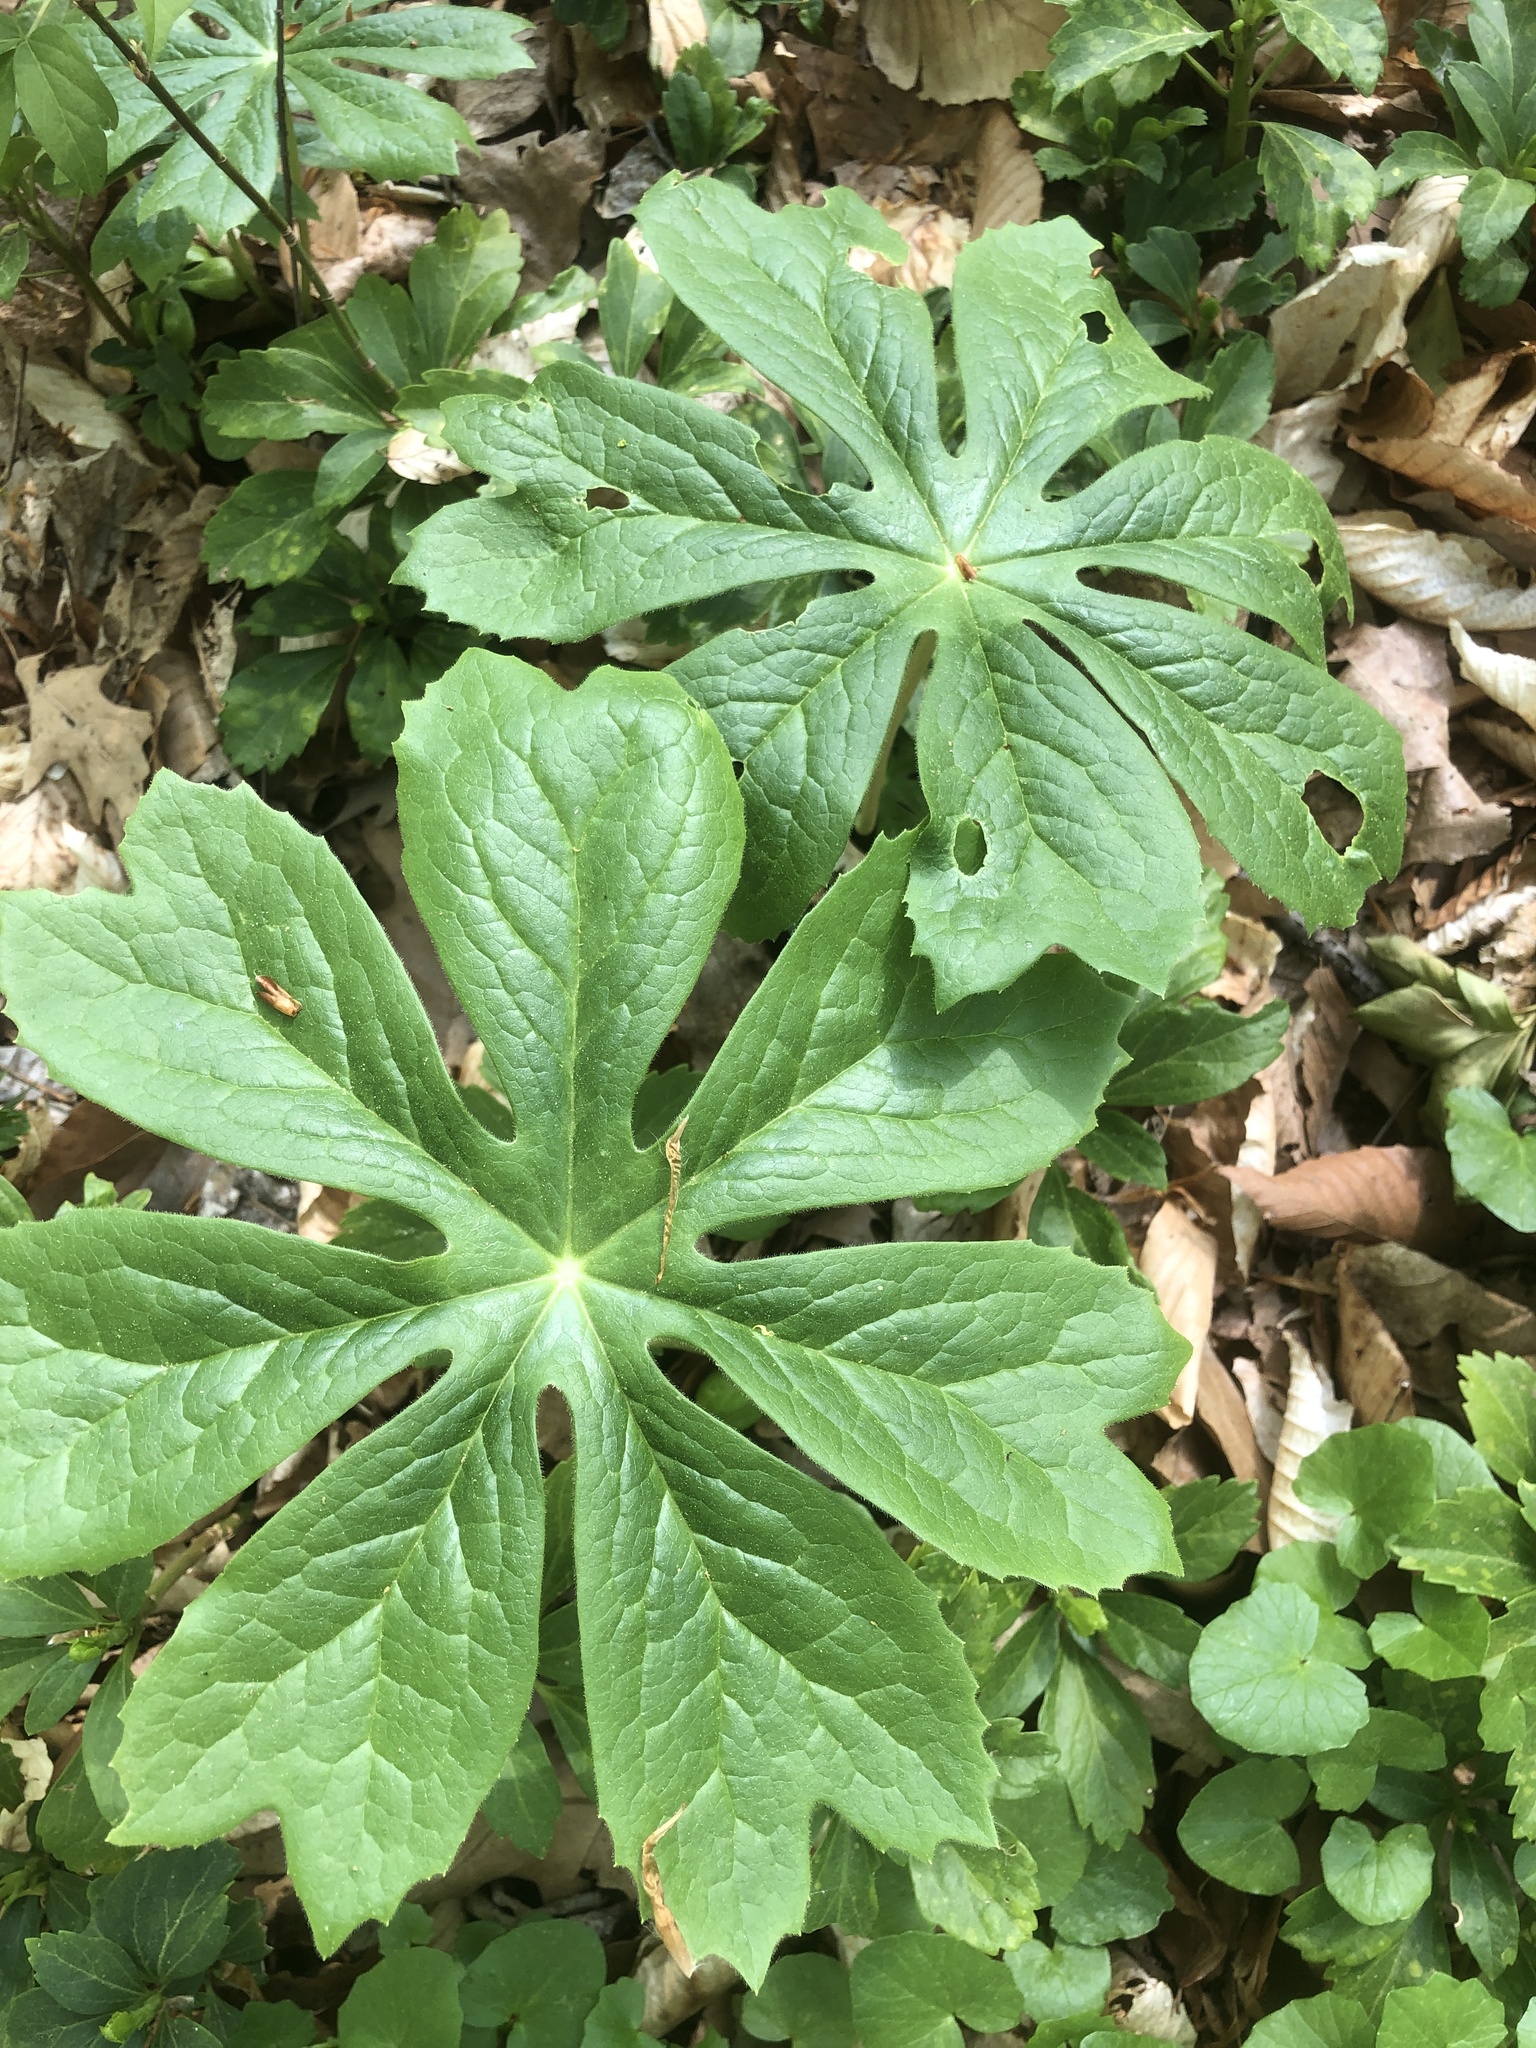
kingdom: Plantae
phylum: Tracheophyta
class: Magnoliopsida
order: Ranunculales
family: Berberidaceae
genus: Podophyllum
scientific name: Podophyllum peltatum
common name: Wild mandrake
